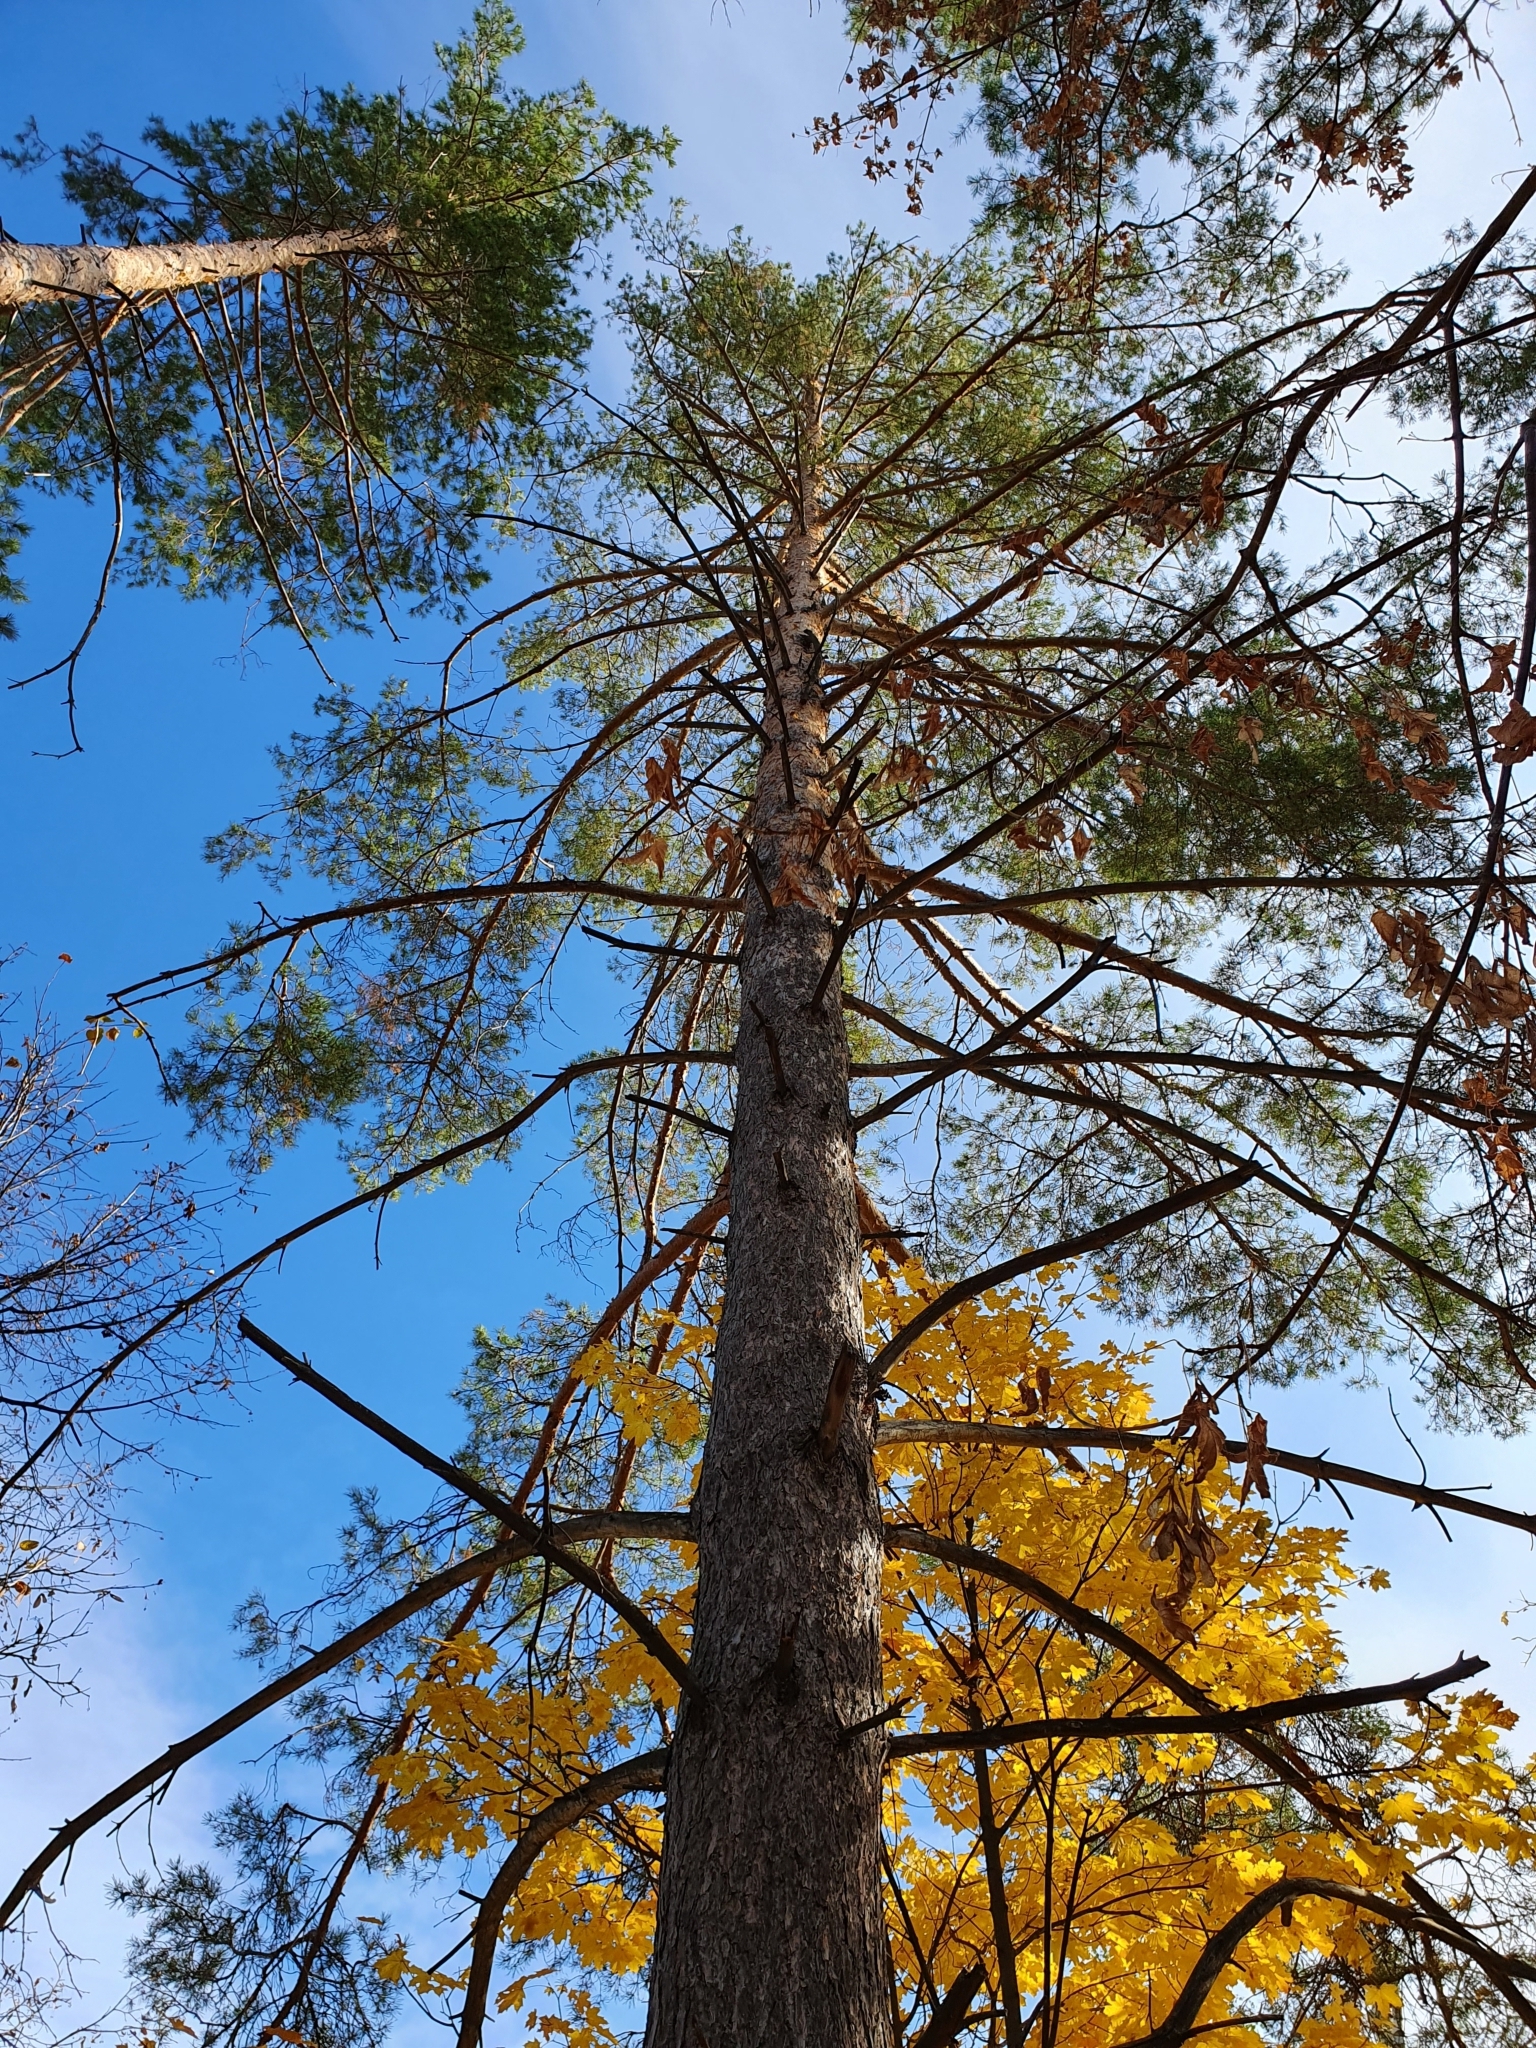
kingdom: Plantae
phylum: Tracheophyta
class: Pinopsida
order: Pinales
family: Pinaceae
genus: Pinus
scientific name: Pinus sylvestris
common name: Scots pine
